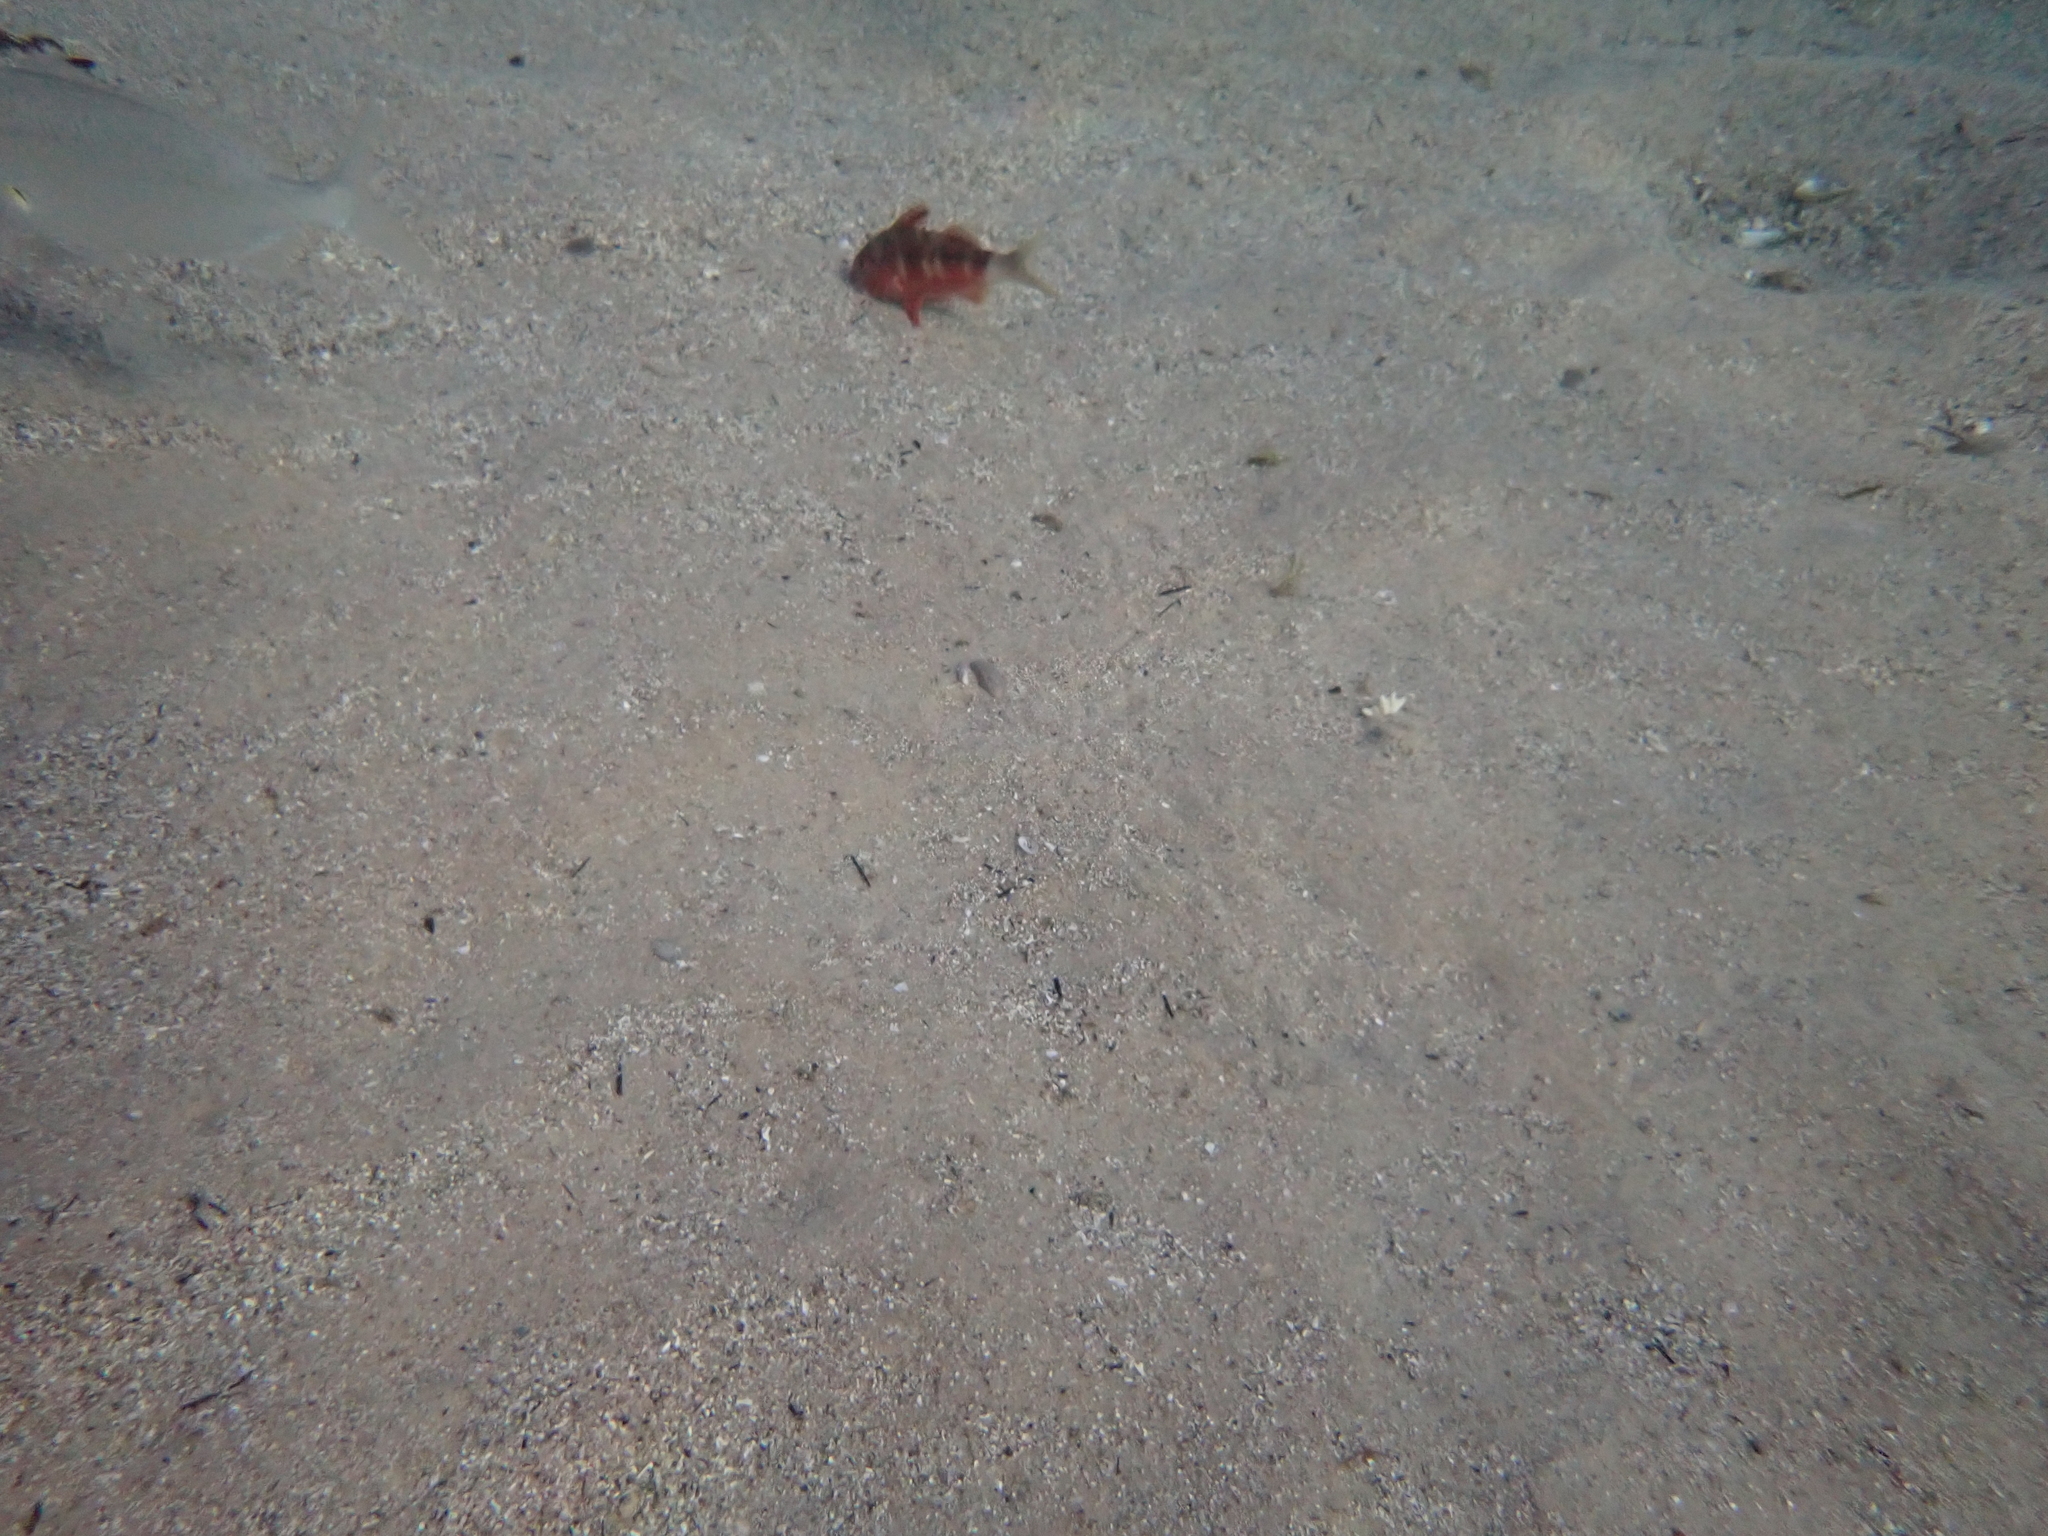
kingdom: Animalia
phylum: Chordata
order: Perciformes
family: Mullidae
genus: Upeneichthys
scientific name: Upeneichthys lineatus
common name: Red mullet
